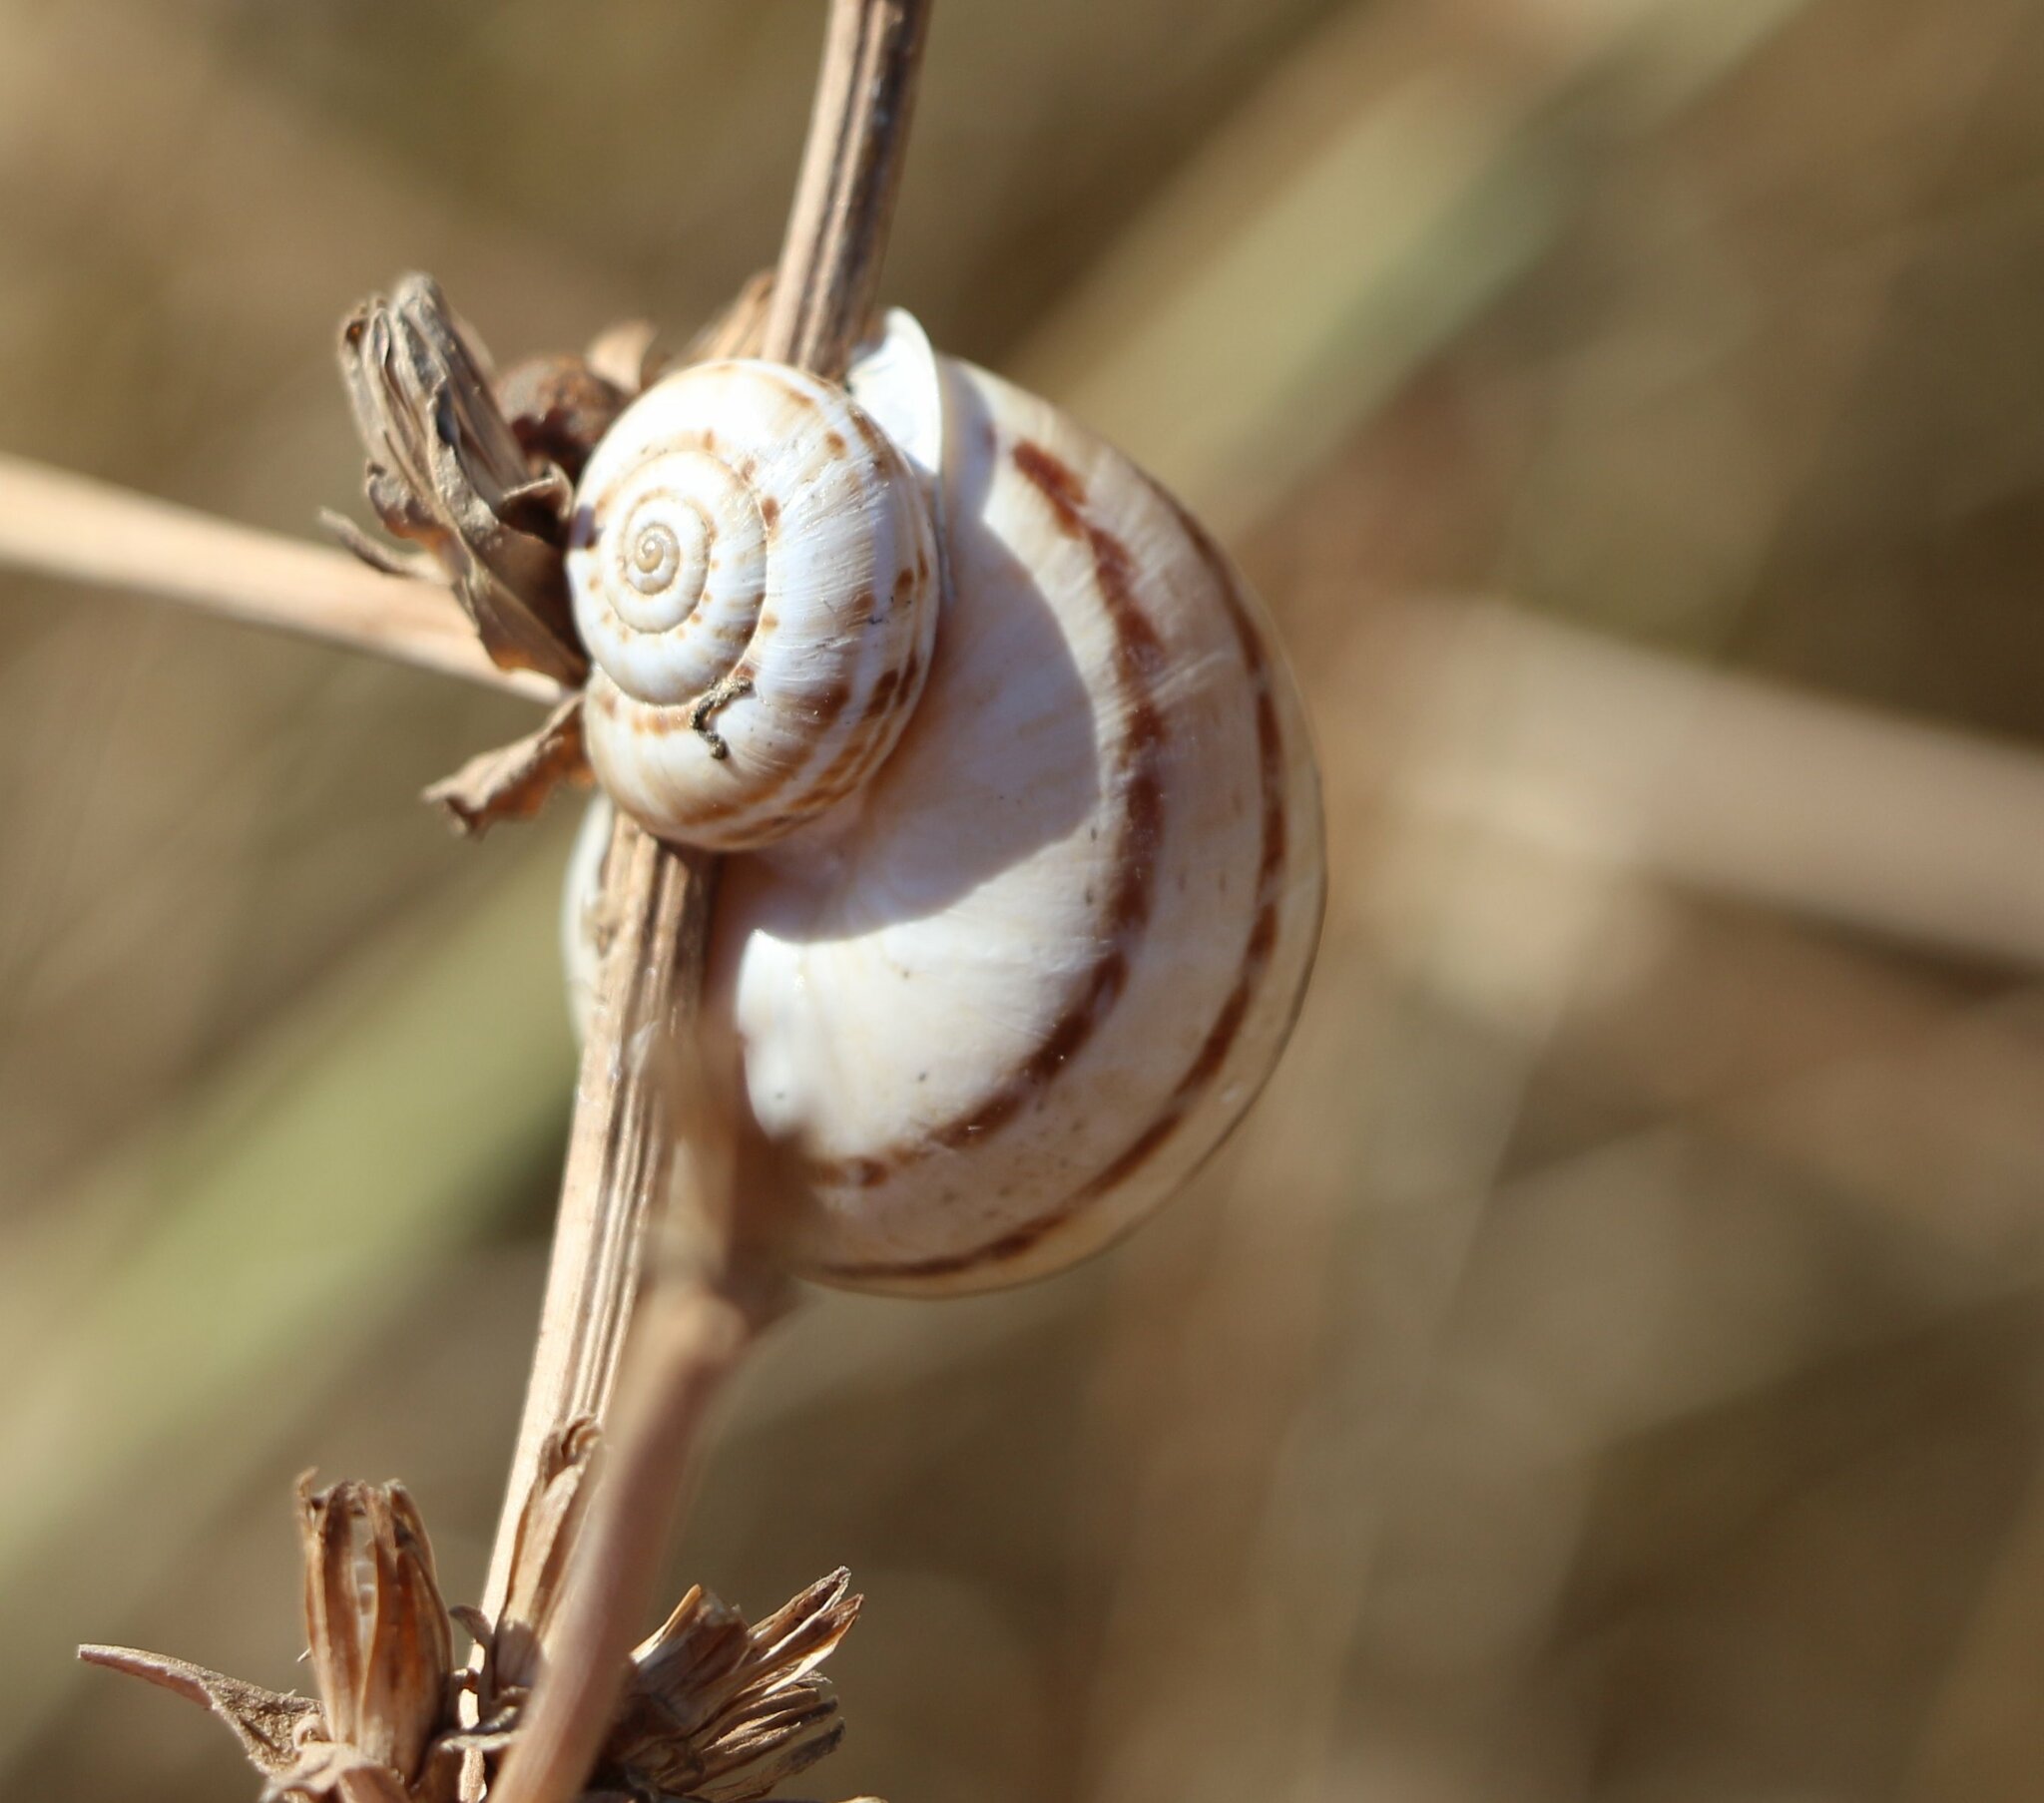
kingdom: Animalia
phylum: Mollusca
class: Gastropoda
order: Stylommatophora
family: Helicidae
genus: Eobania
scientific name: Eobania vermiculata
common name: Chocolateband snail
